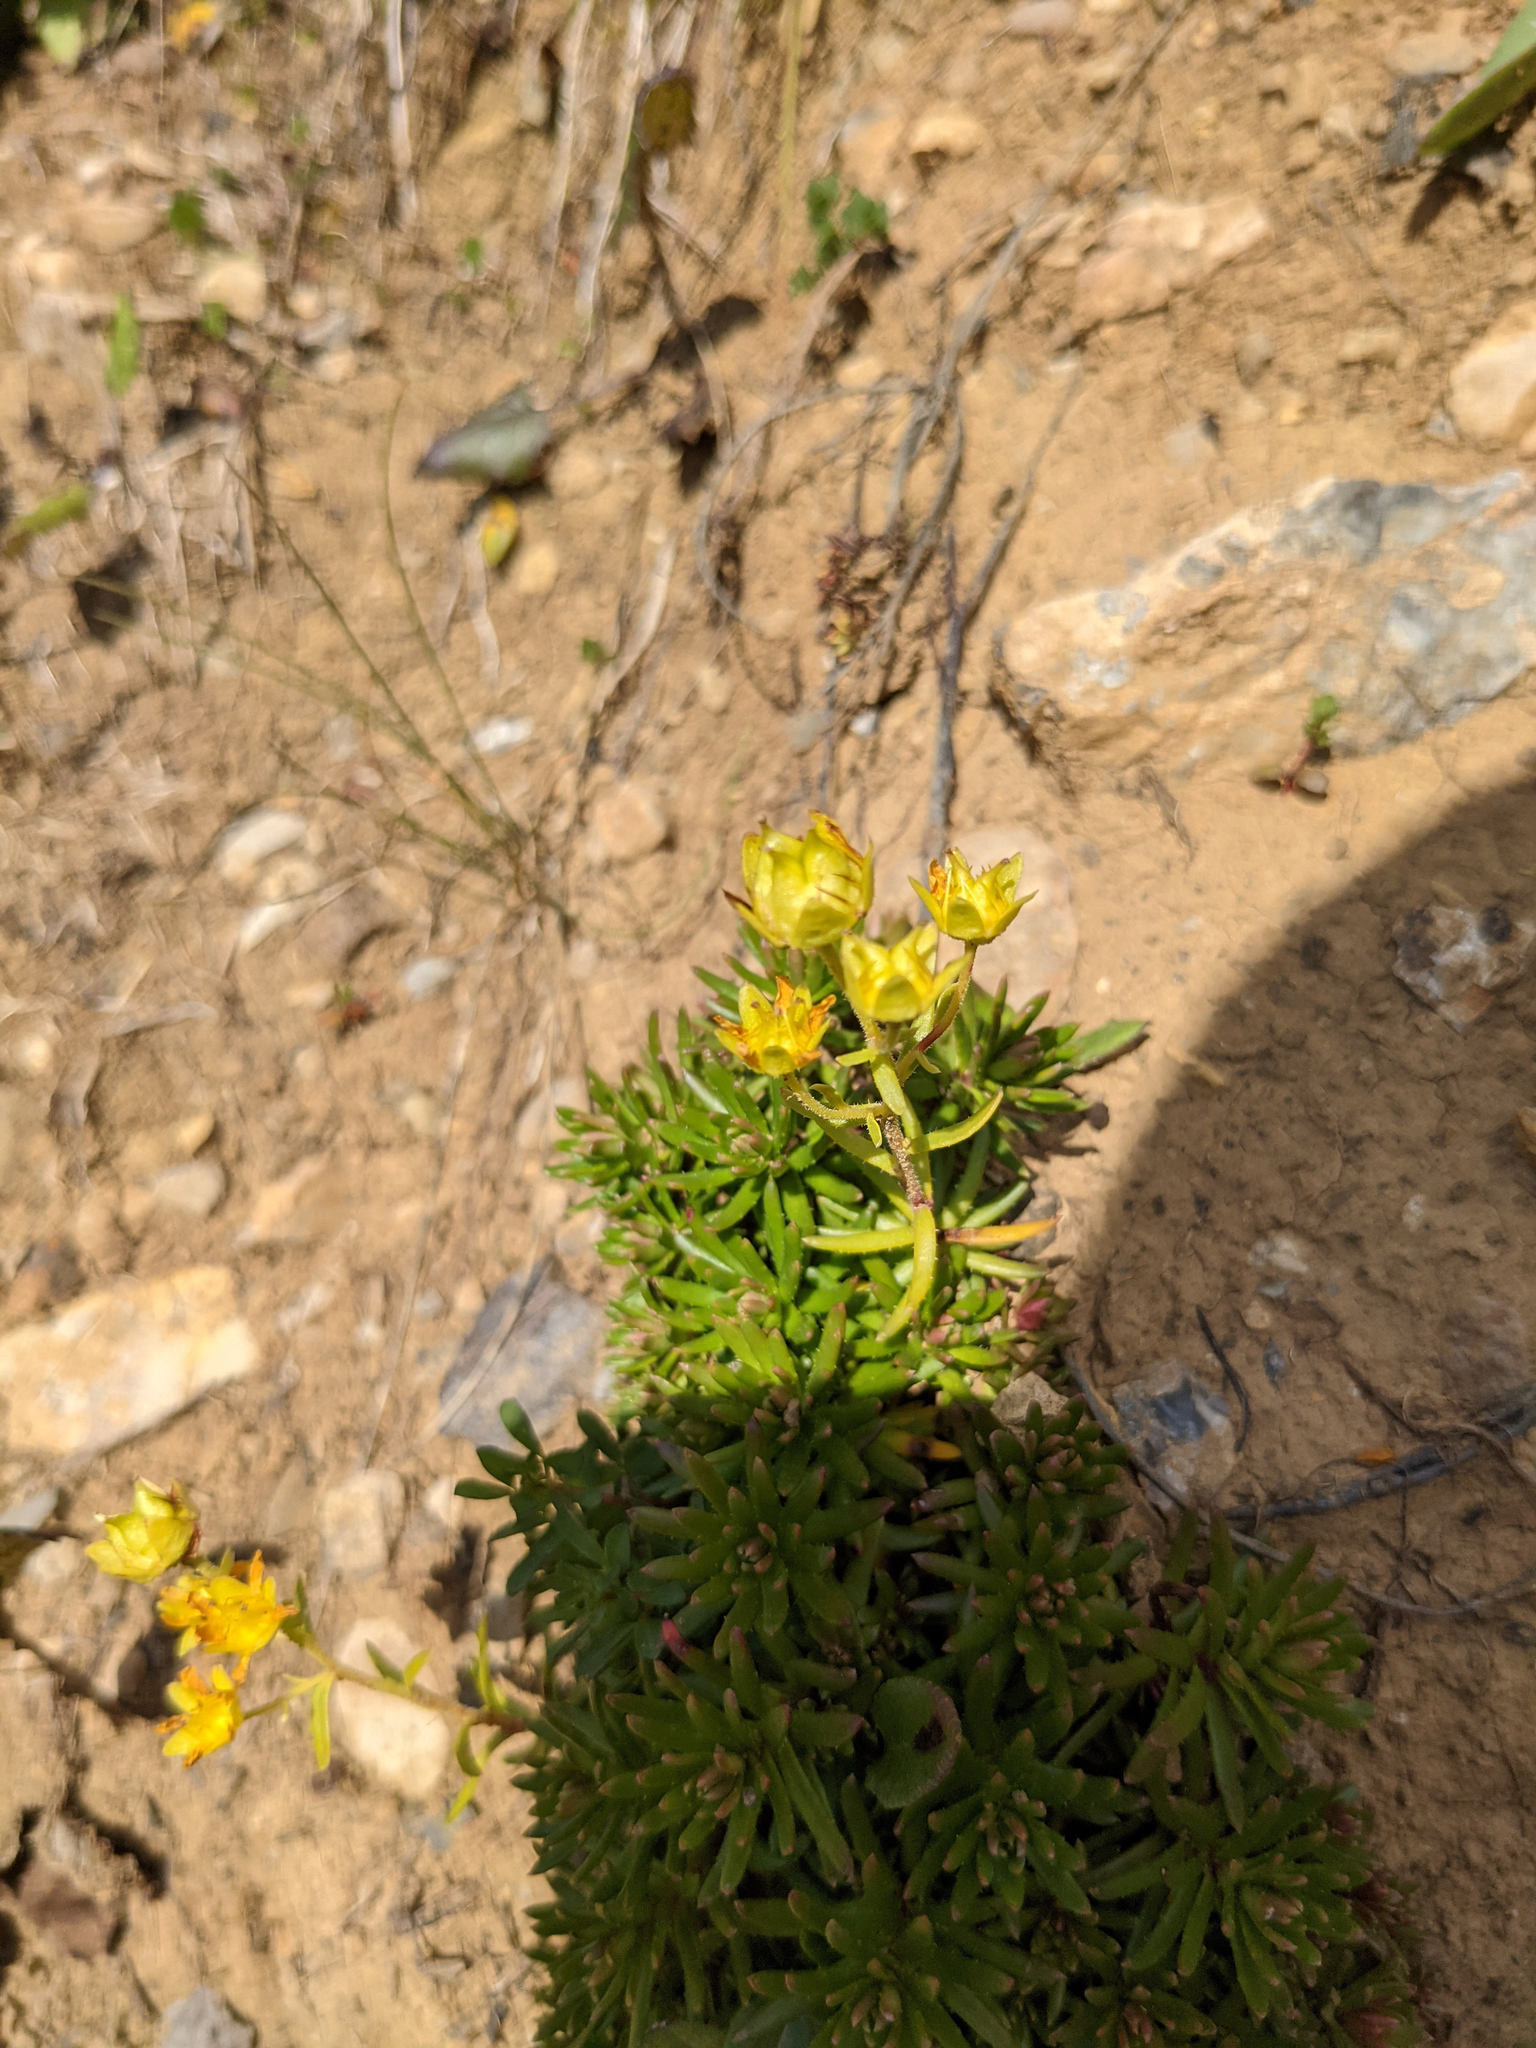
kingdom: Plantae
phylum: Tracheophyta
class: Magnoliopsida
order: Saxifragales
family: Saxifragaceae
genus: Saxifraga
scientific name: Saxifraga aizoides
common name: Yellow mountain saxifrage
